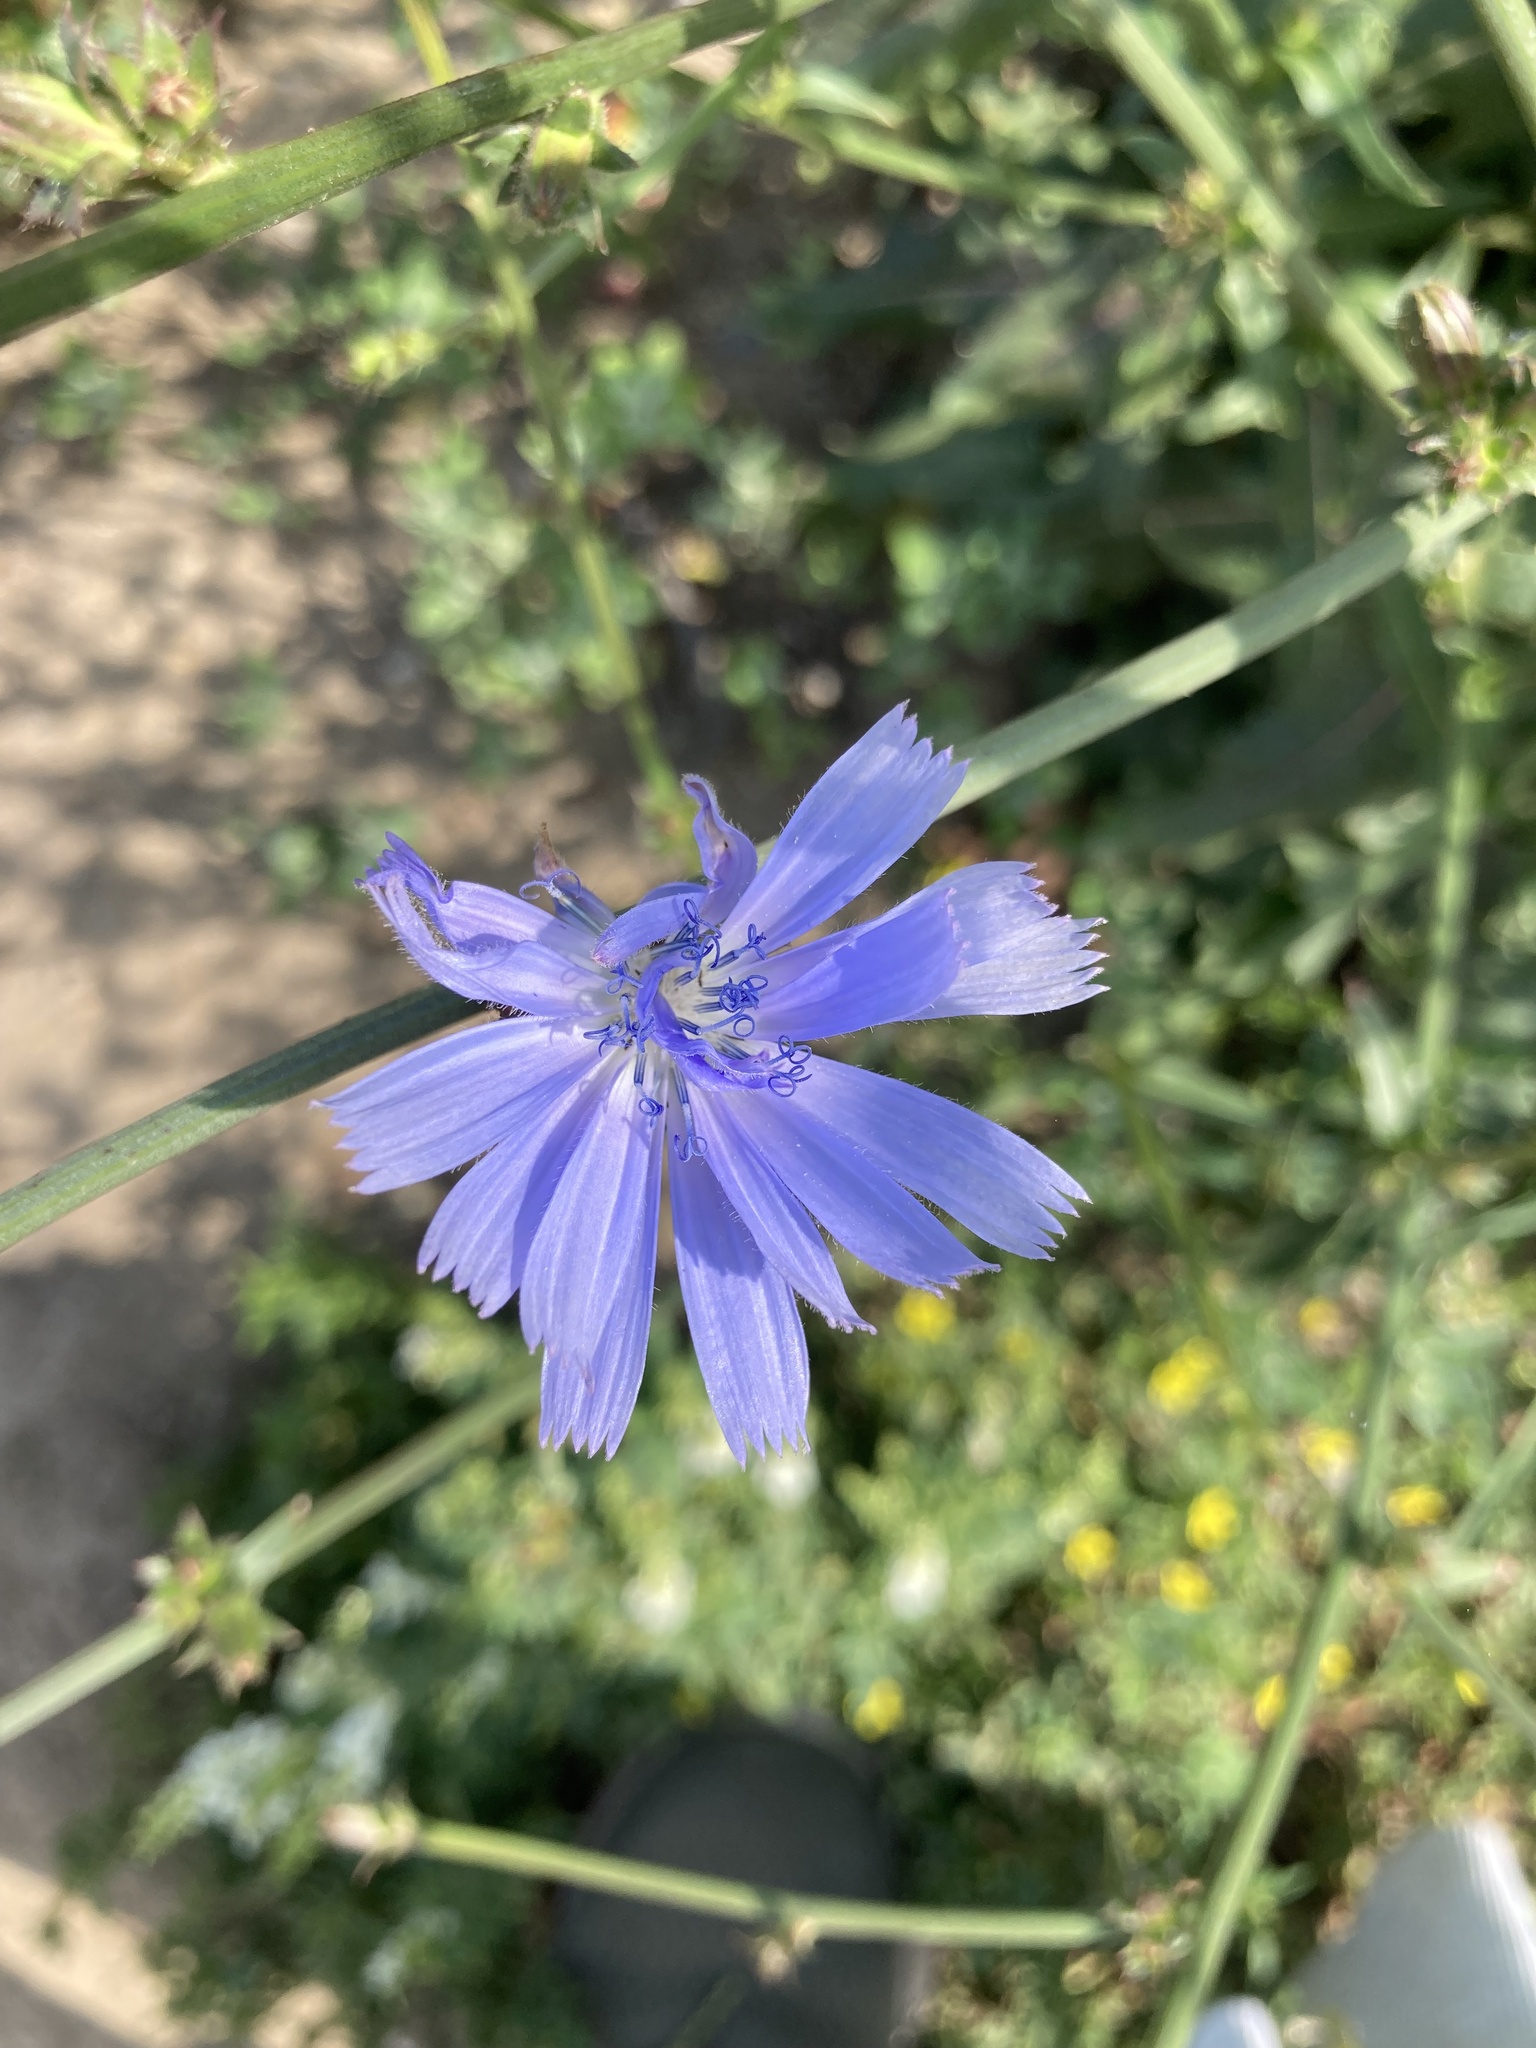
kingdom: Plantae
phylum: Tracheophyta
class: Magnoliopsida
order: Asterales
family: Asteraceae
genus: Cichorium
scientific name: Cichorium intybus
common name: Chicory
